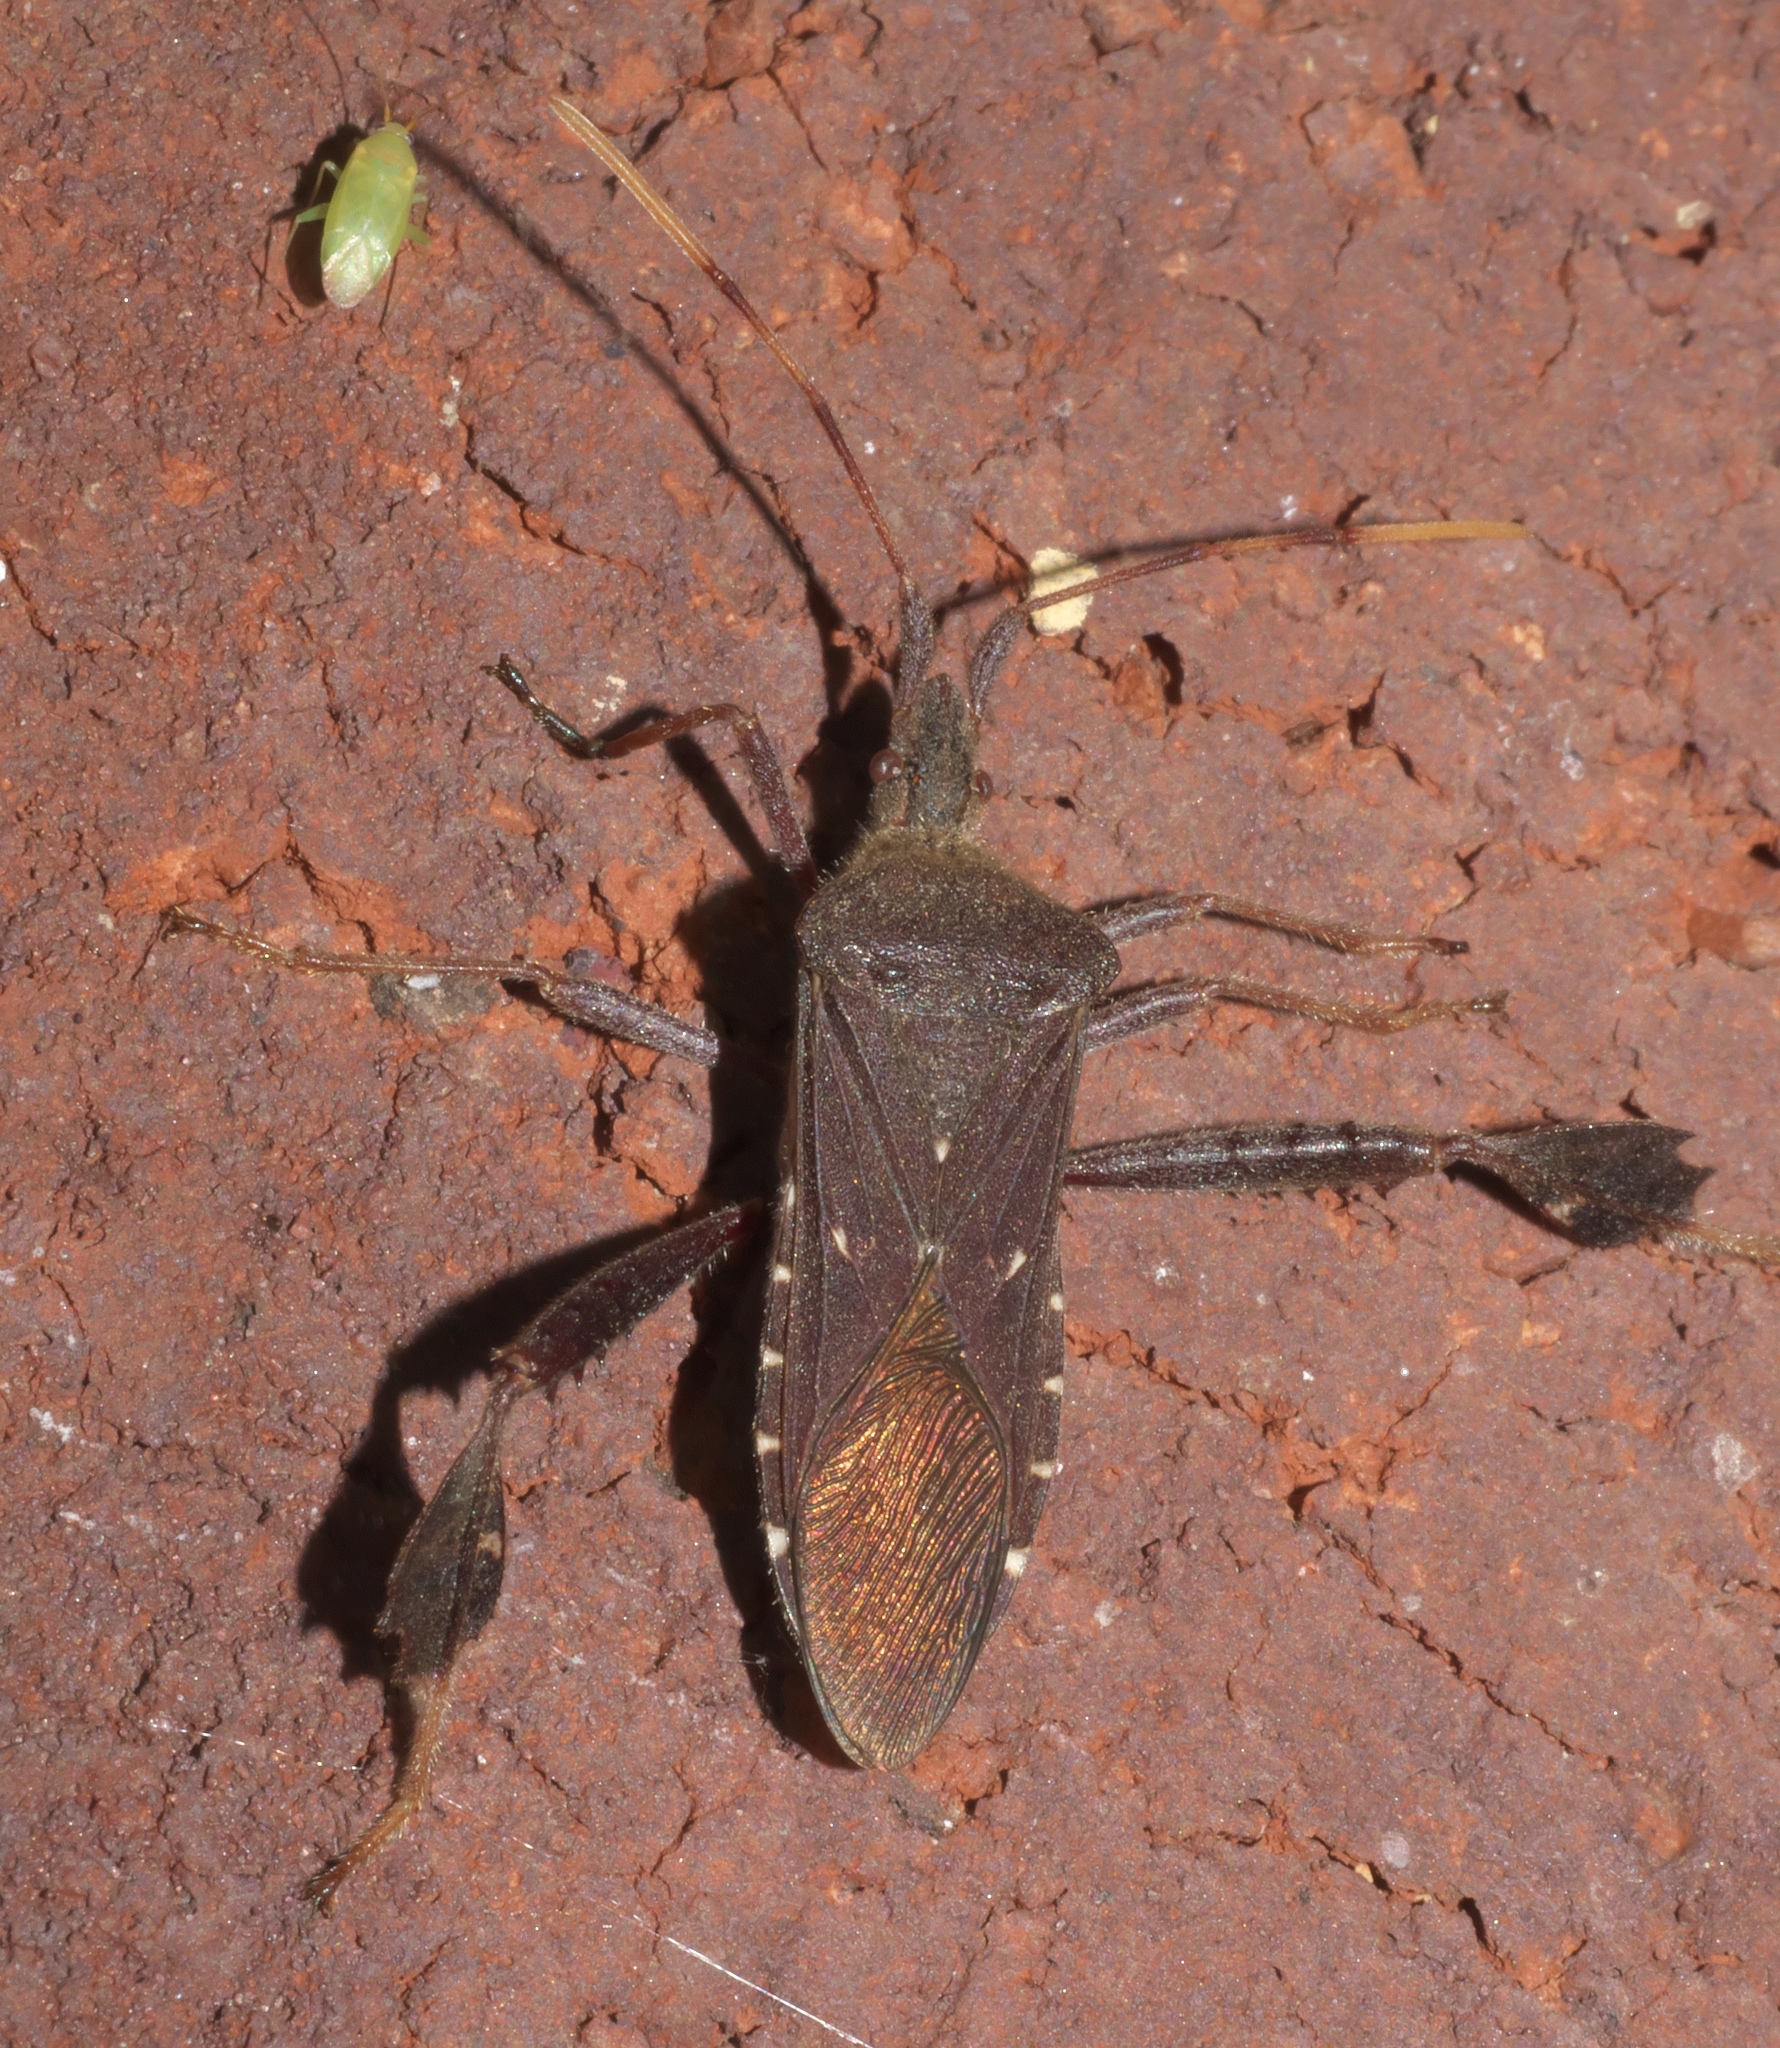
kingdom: Animalia
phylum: Arthropoda
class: Insecta
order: Hemiptera
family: Coreidae
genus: Leptoglossus
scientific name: Leptoglossus oppositus
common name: Northern leaf-footed bug
